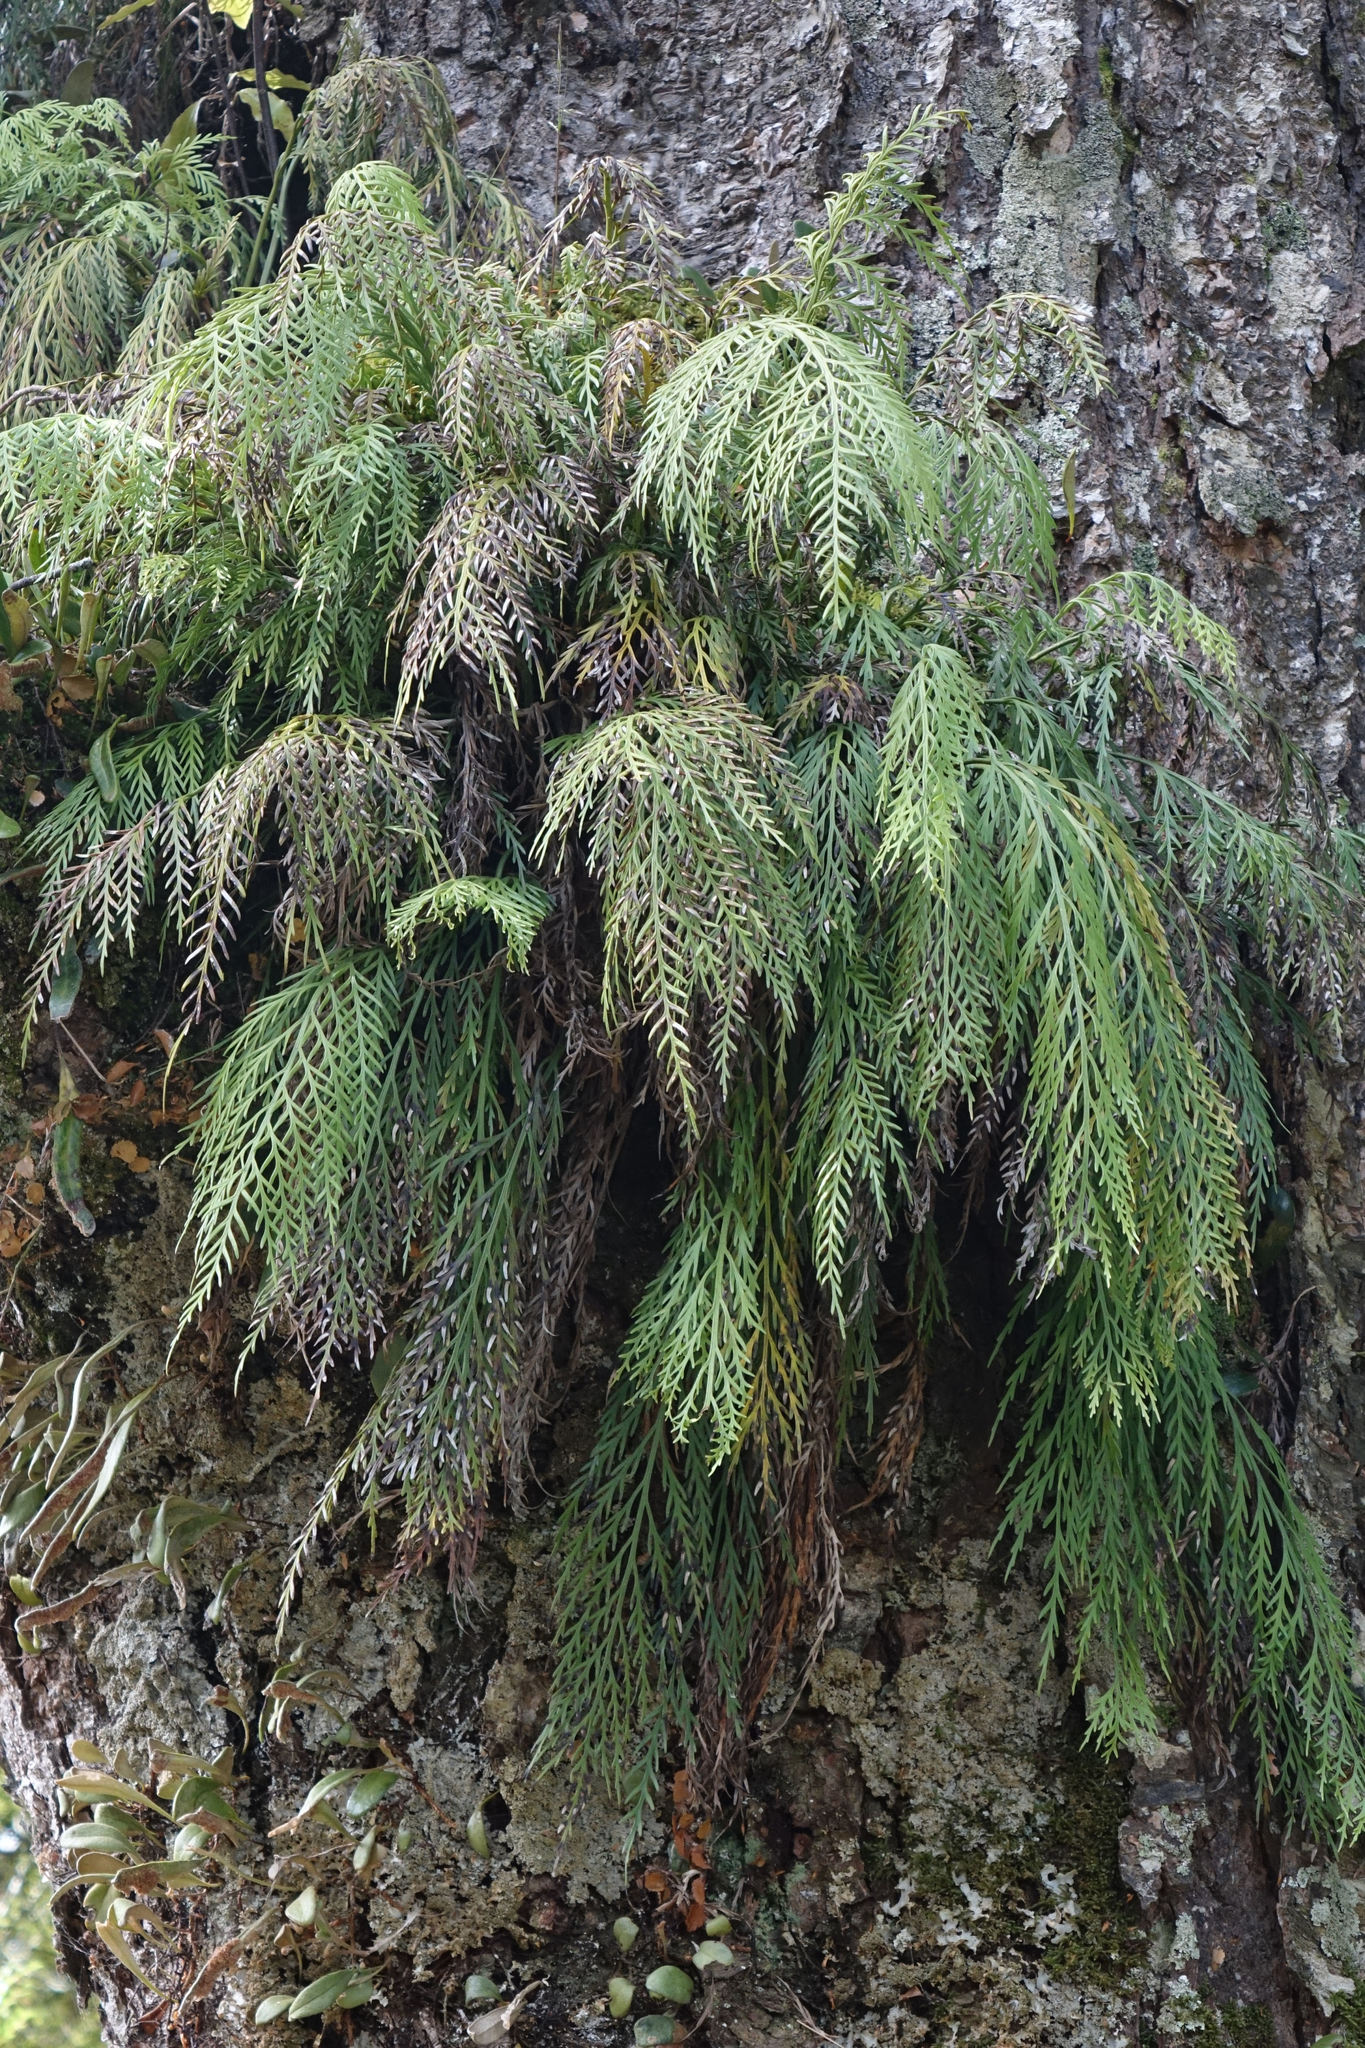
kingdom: Plantae
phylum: Tracheophyta
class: Polypodiopsida
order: Polypodiales
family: Aspleniaceae
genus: Asplenium
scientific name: Asplenium flaccidum
